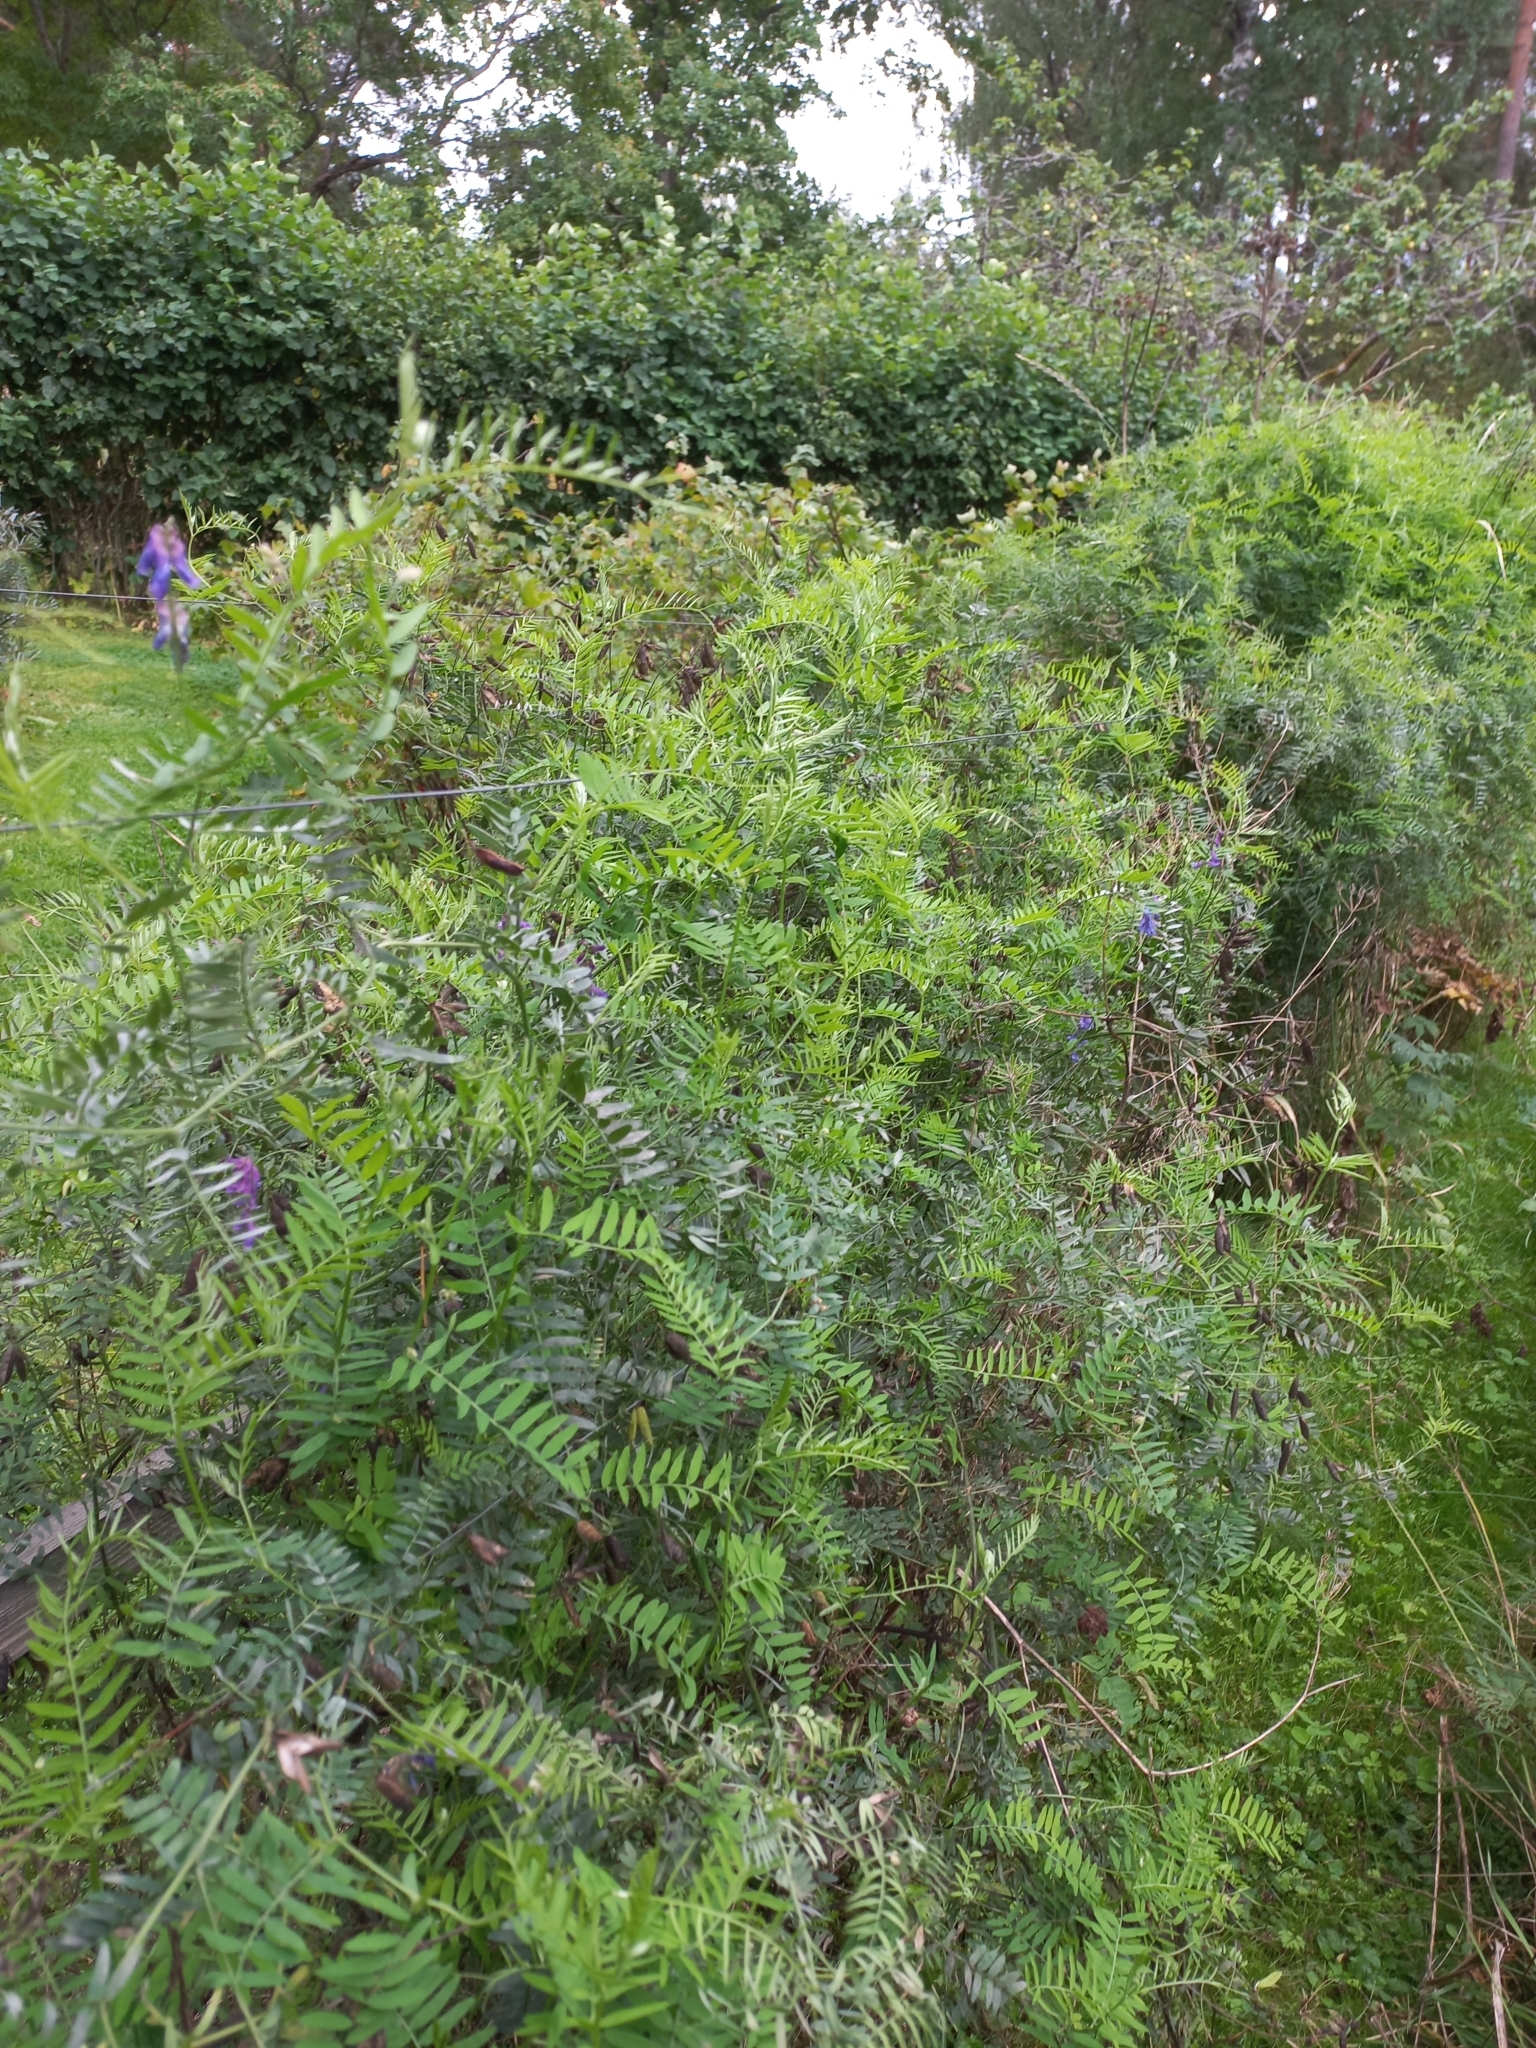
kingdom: Plantae
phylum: Tracheophyta
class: Magnoliopsida
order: Fabales
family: Fabaceae
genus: Vicia
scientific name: Vicia cracca
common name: Bird vetch
